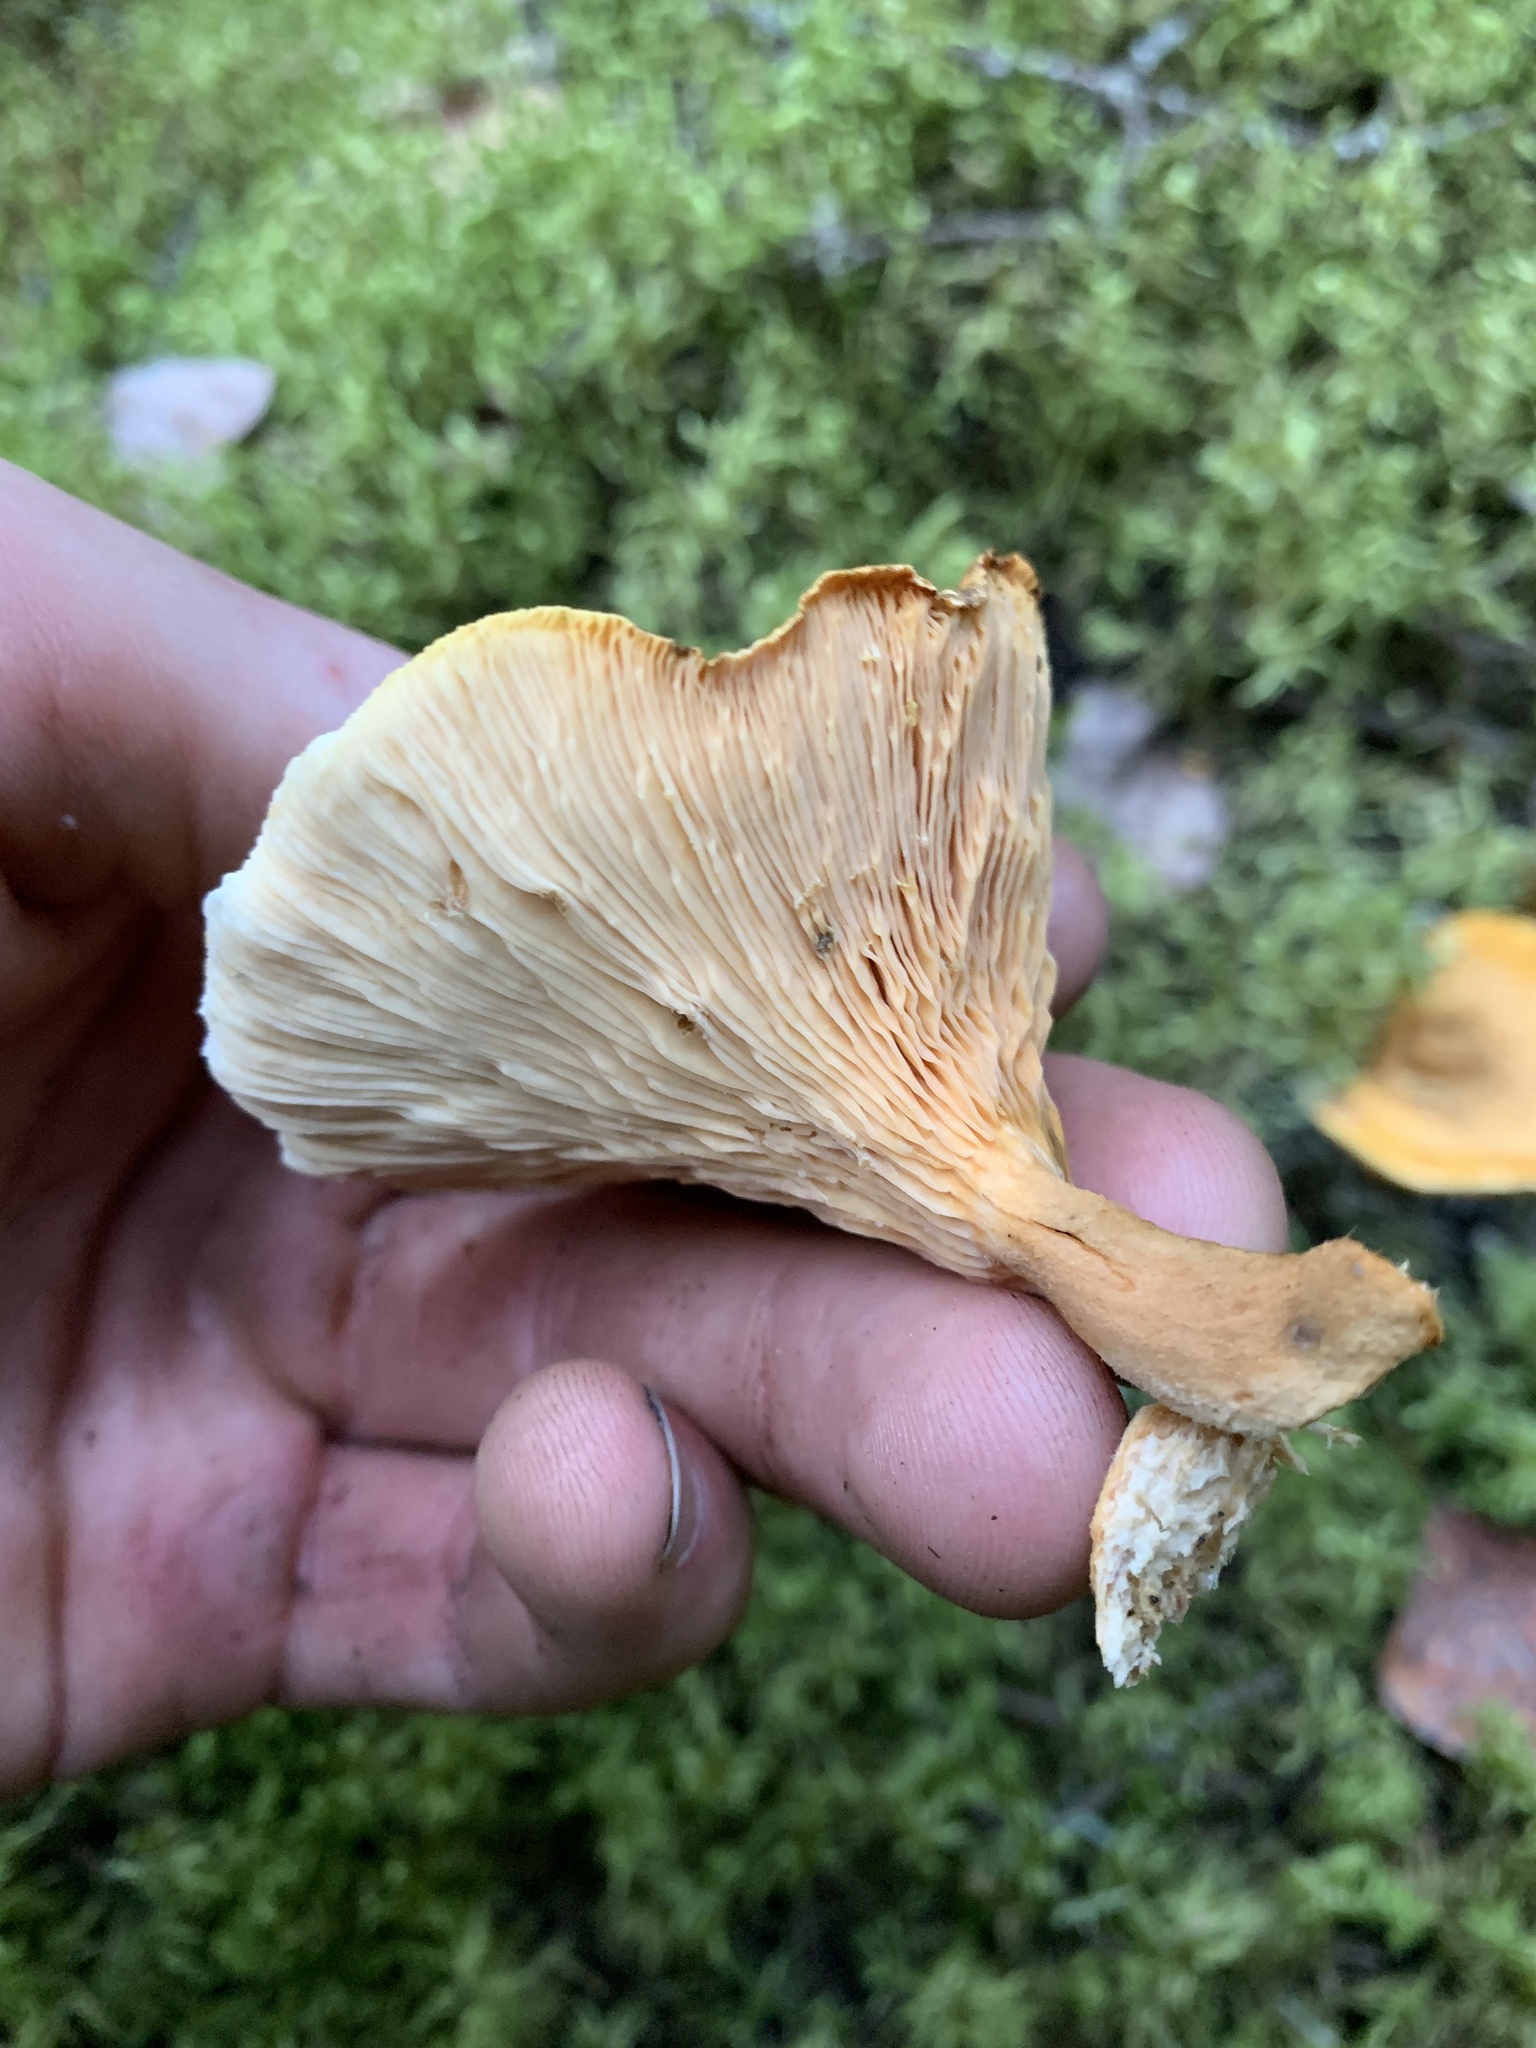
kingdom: Fungi
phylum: Basidiomycota
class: Agaricomycetes
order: Boletales
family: Hygrophoropsidaceae
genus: Hygrophoropsis
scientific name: Hygrophoropsis aurantiaca
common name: False chanterelle
